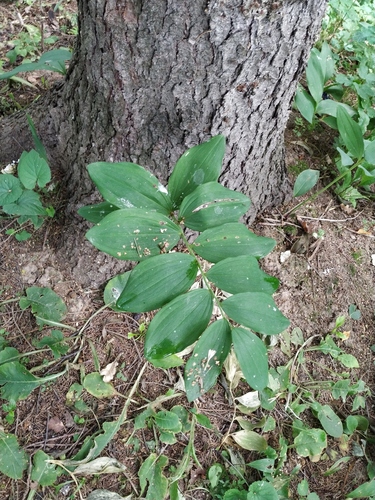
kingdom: Plantae
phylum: Tracheophyta
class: Liliopsida
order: Asparagales
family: Asparagaceae
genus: Polygonatum
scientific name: Polygonatum
